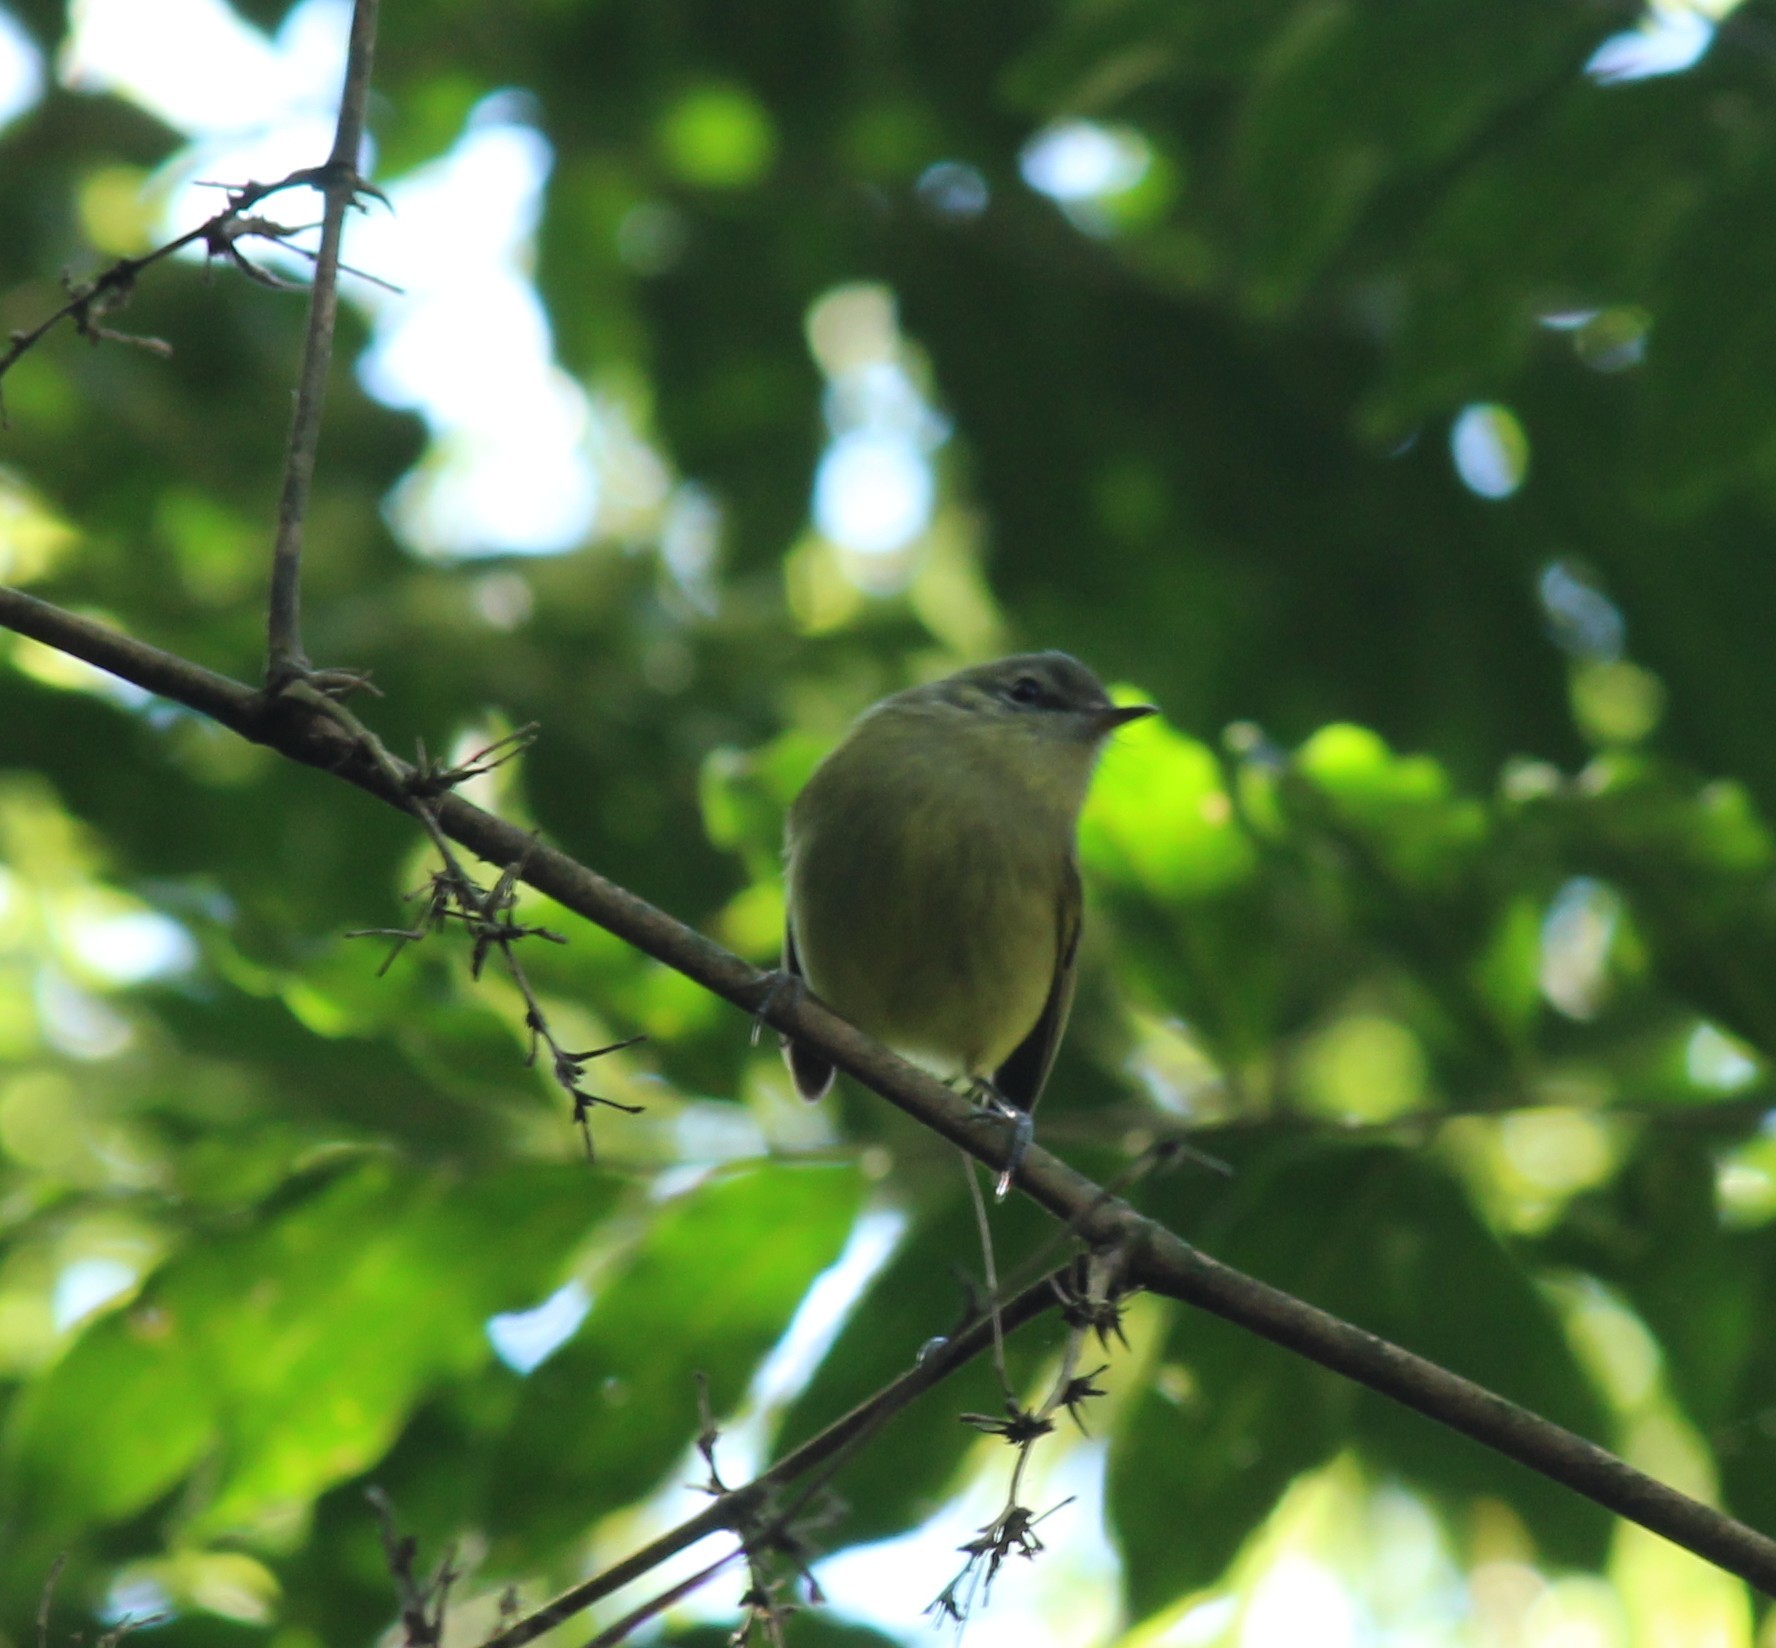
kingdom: Animalia
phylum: Chordata
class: Aves
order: Passeriformes
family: Tyrannidae
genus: Phylloscartes
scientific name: Phylloscartes ventralis
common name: Mottle-cheeked tyrannulet
